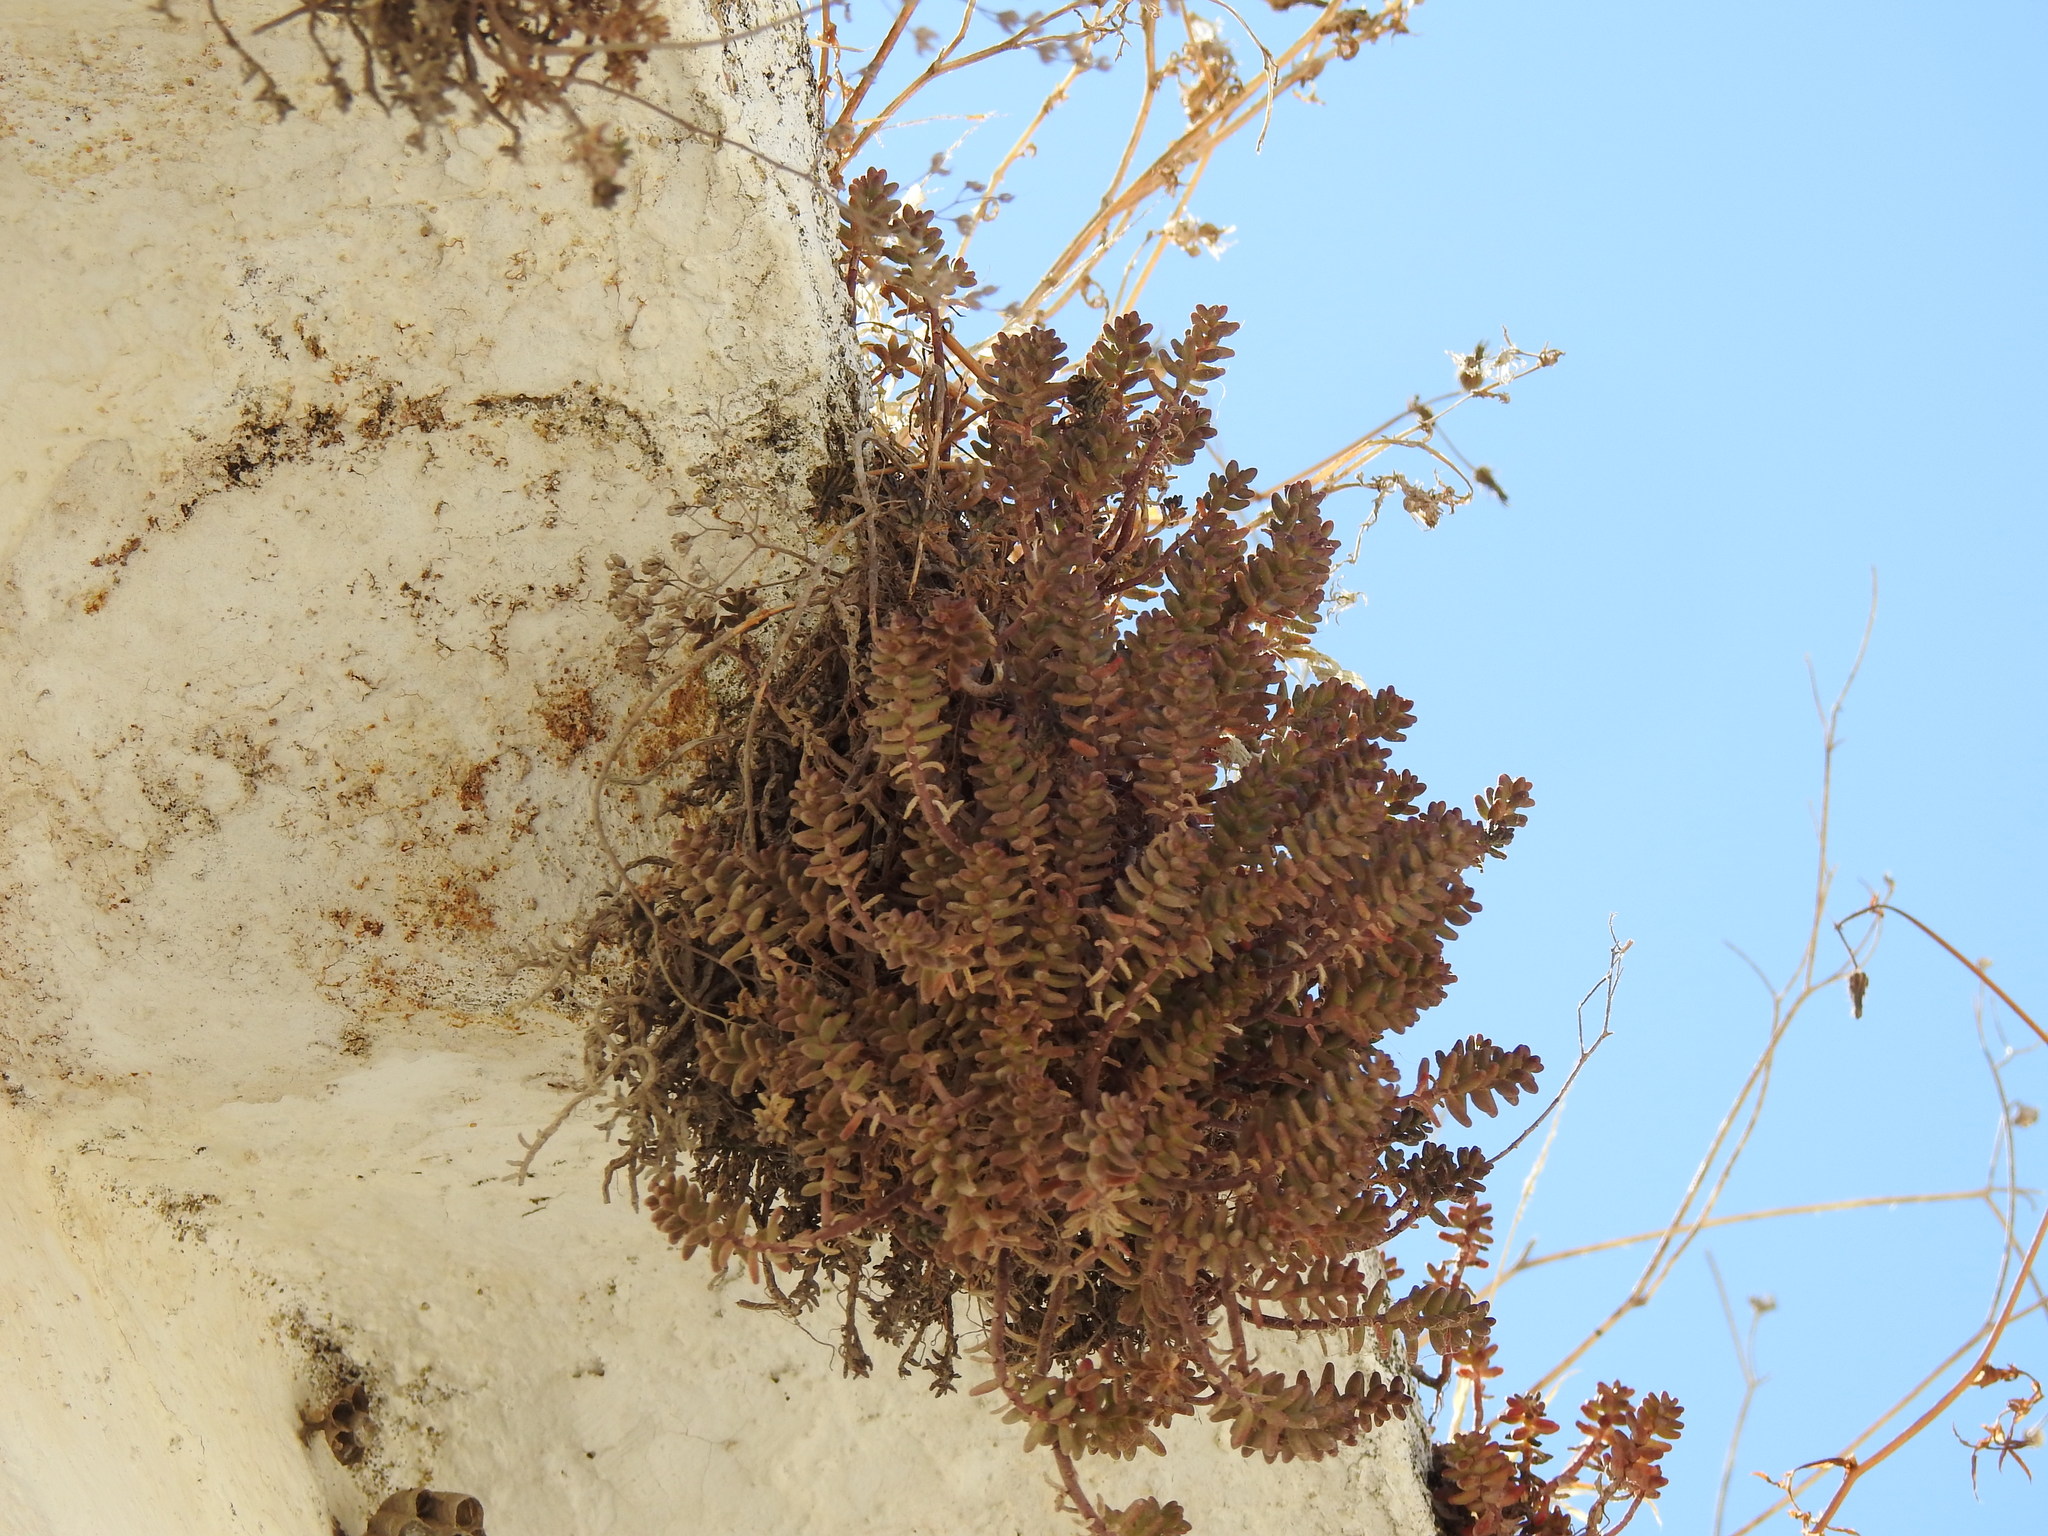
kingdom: Plantae
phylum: Tracheophyta
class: Magnoliopsida
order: Saxifragales
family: Crassulaceae
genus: Sedum
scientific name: Sedum album
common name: White stonecrop
